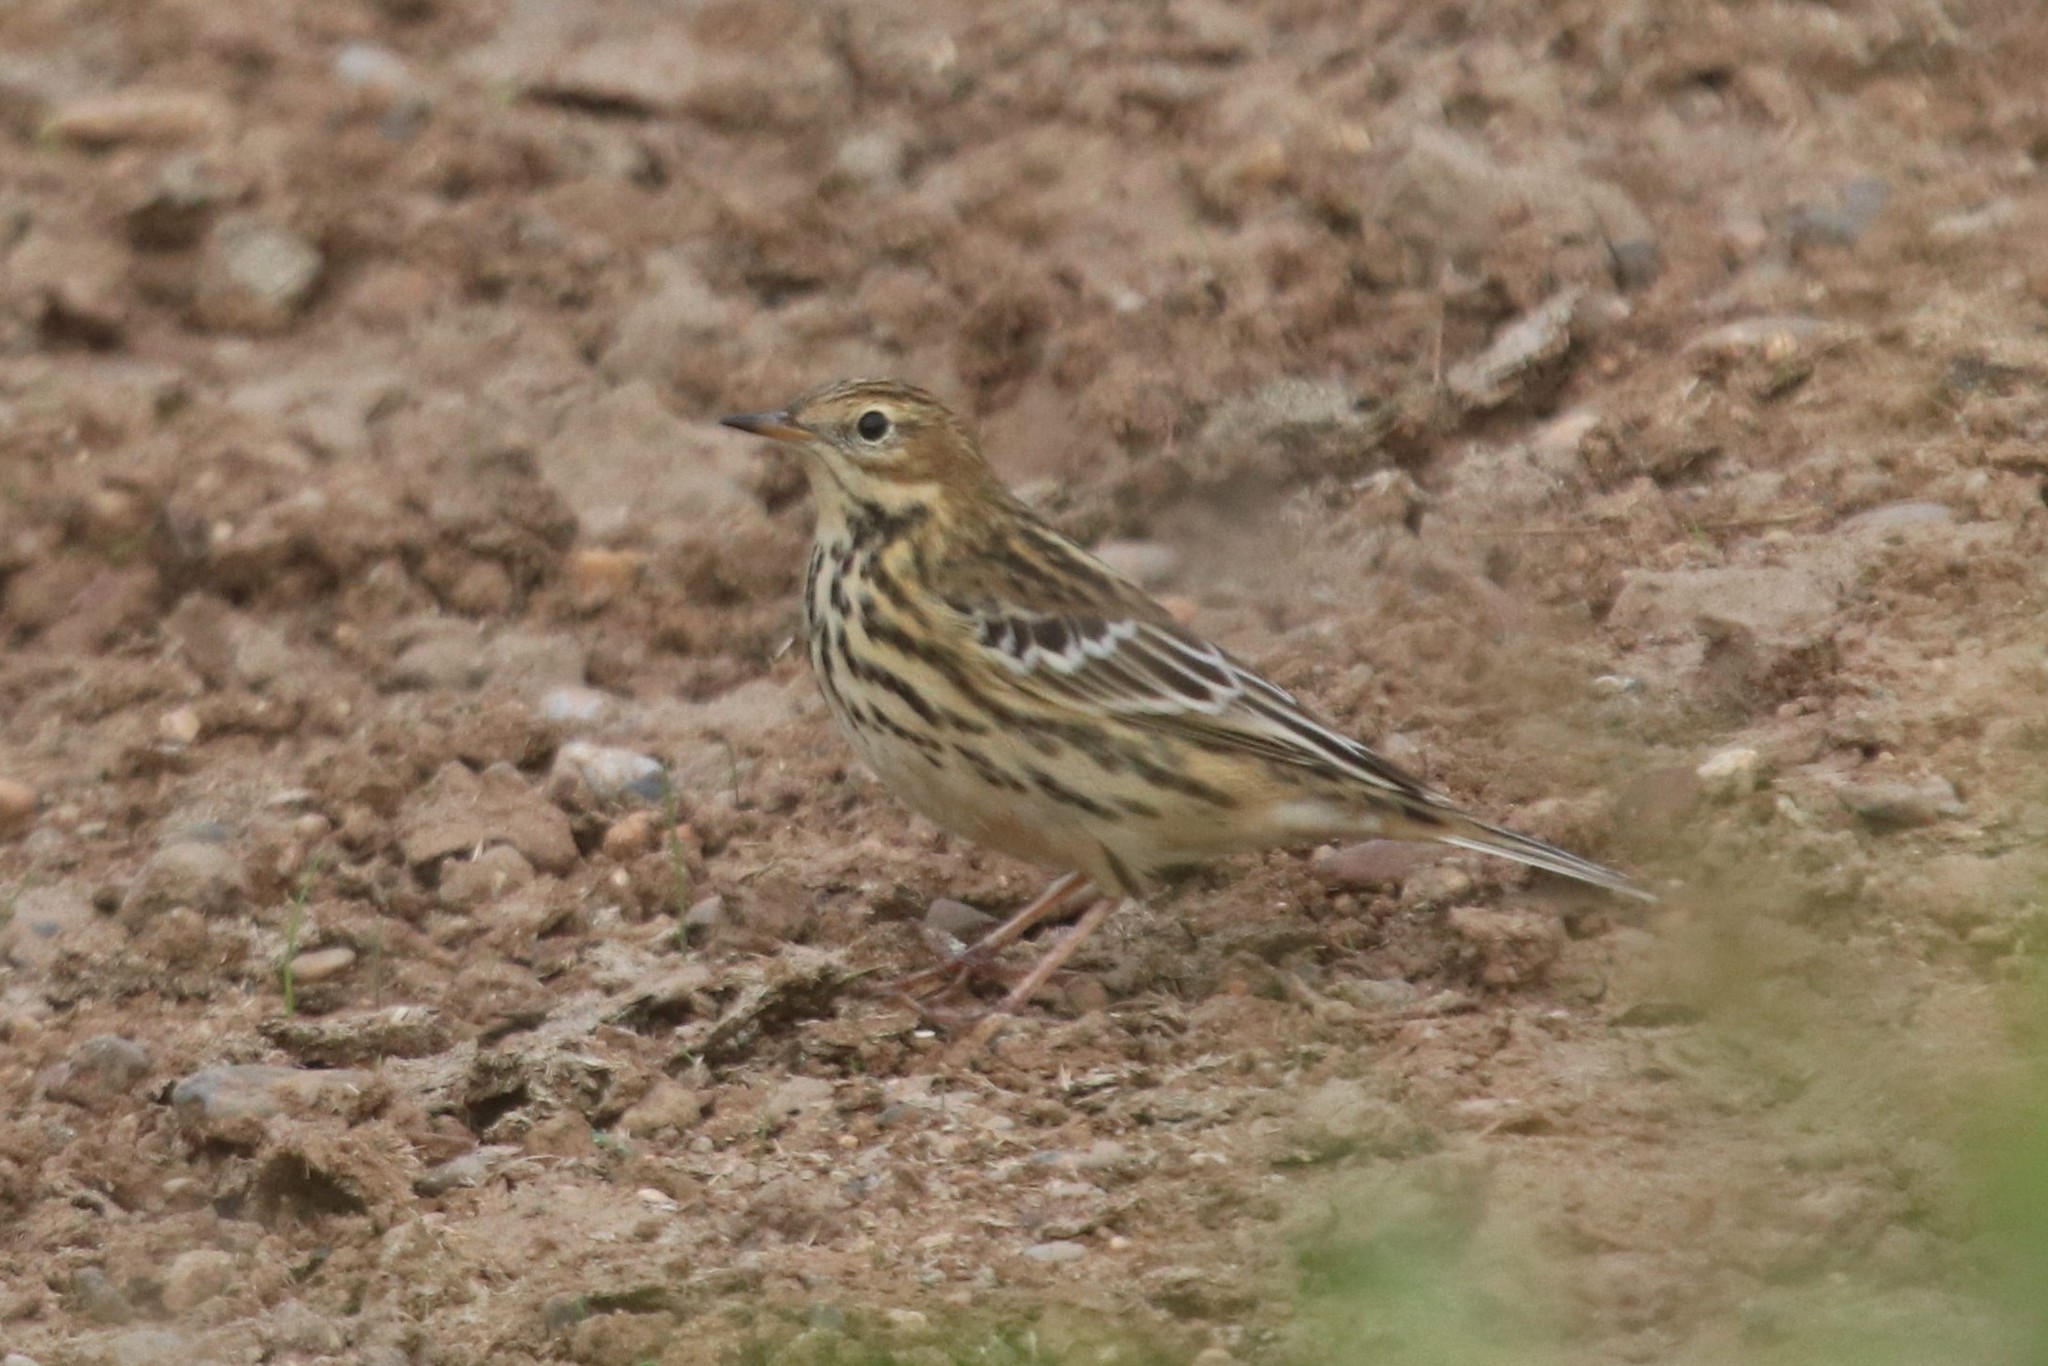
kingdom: Animalia
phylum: Chordata
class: Aves
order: Passeriformes
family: Motacillidae
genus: Anthus
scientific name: Anthus pratensis
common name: Meadow pipit
